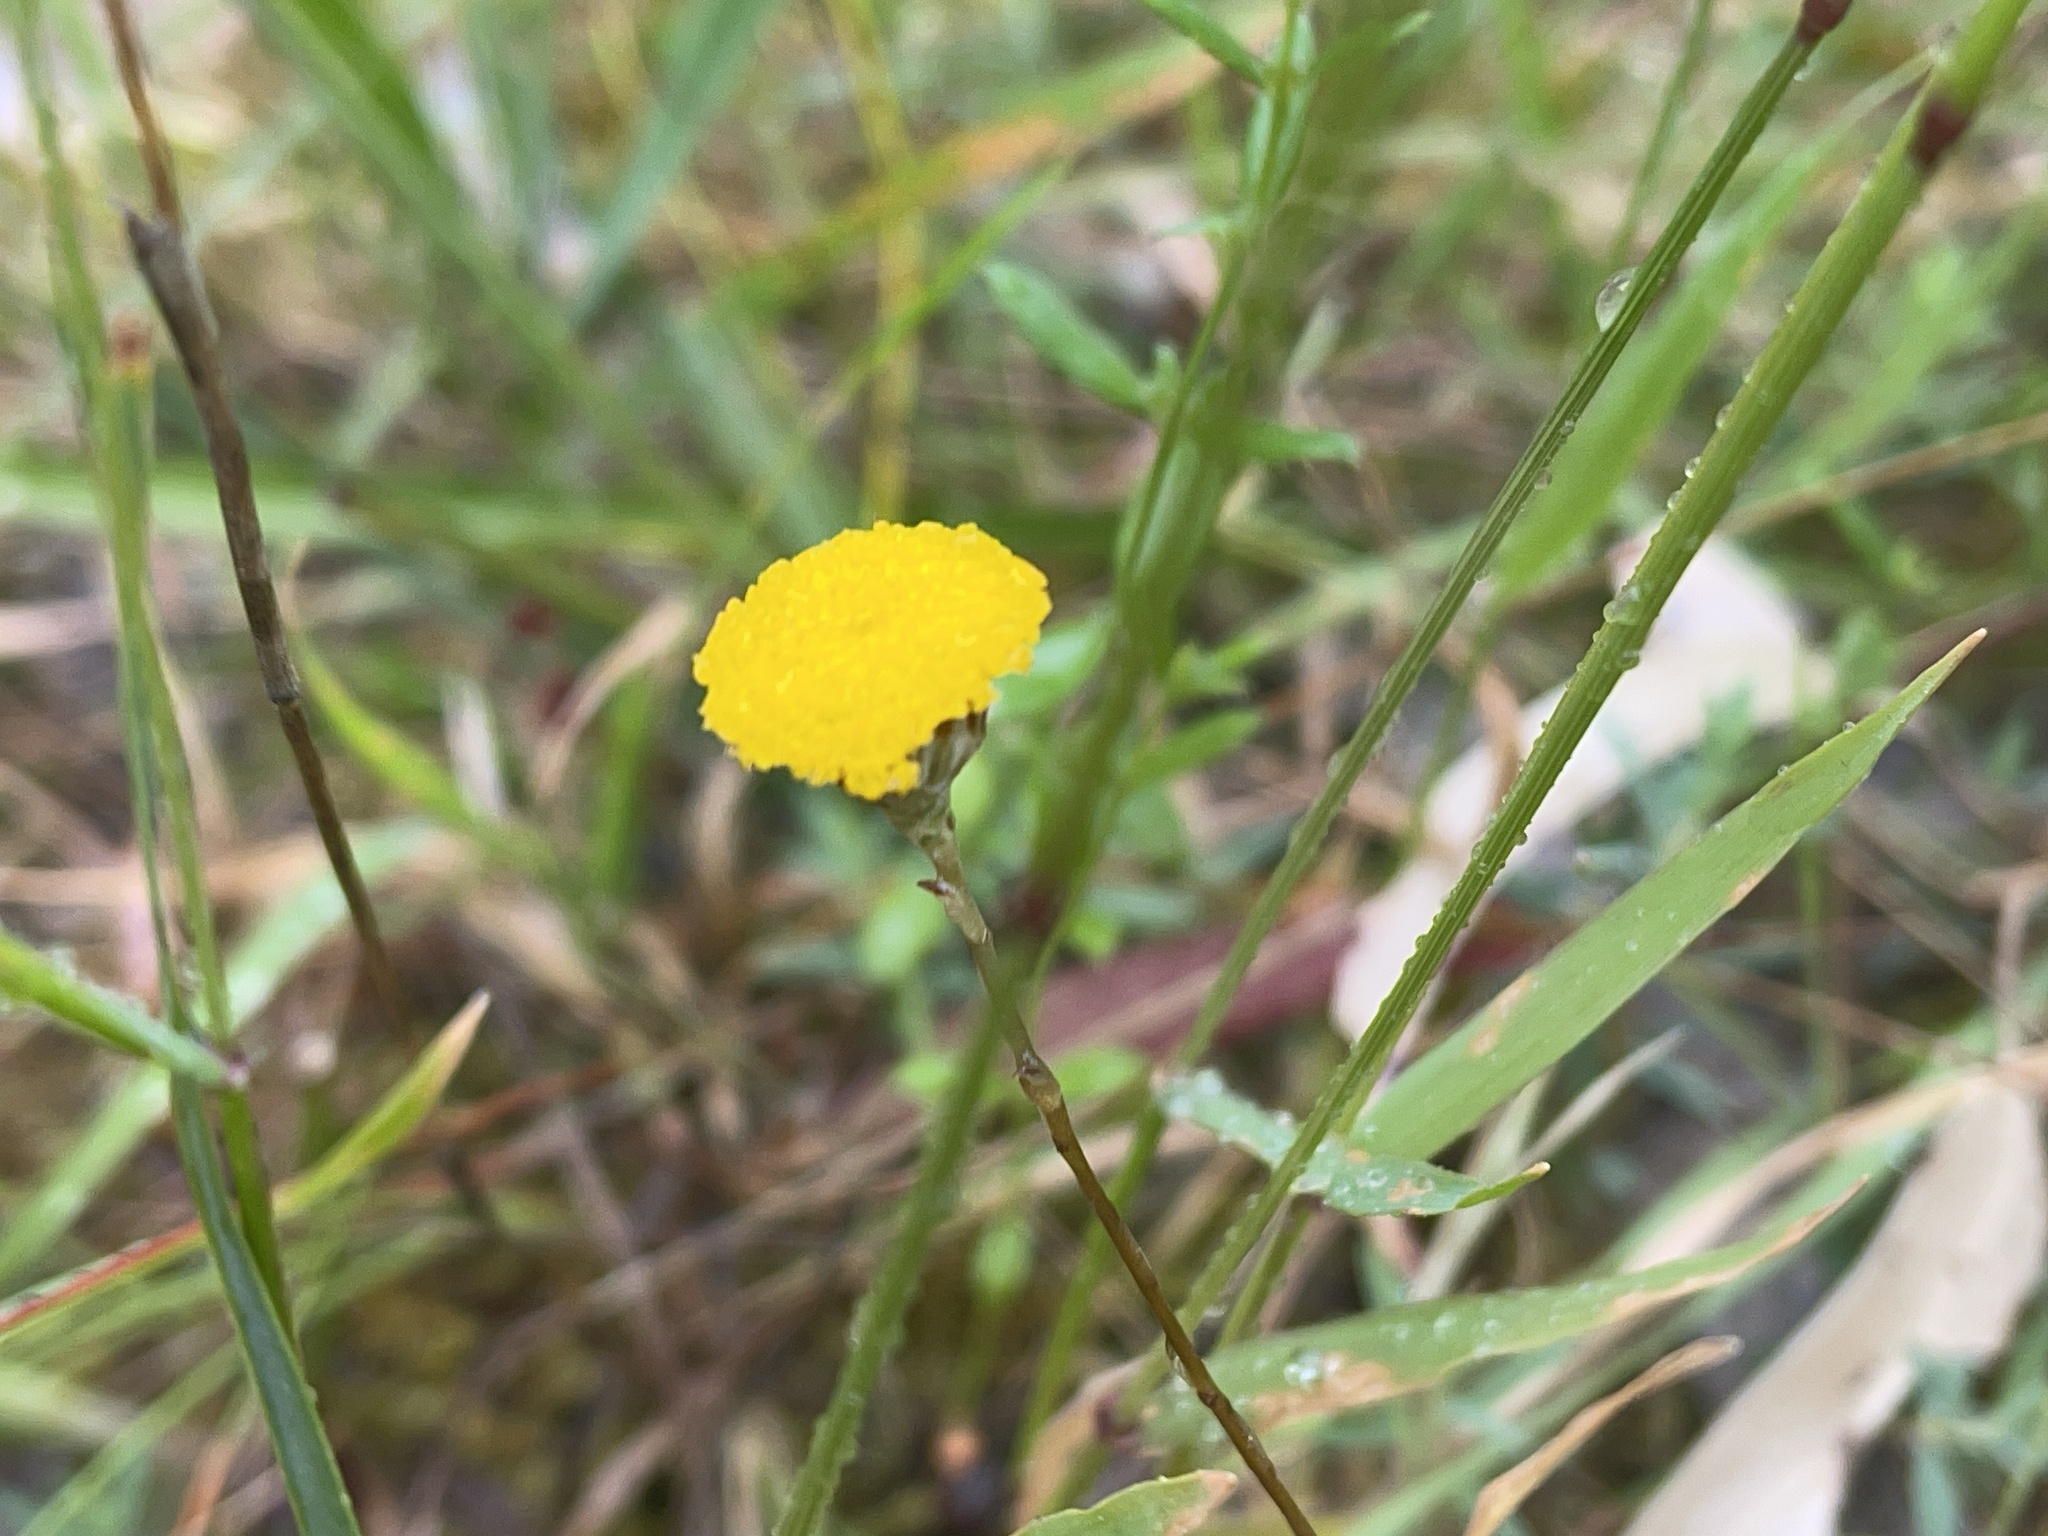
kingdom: Plantae
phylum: Tracheophyta
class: Magnoliopsida
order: Asterales
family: Asteraceae
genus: Leptorhynchos
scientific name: Leptorhynchos squamatus
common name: Scaly-buttons
